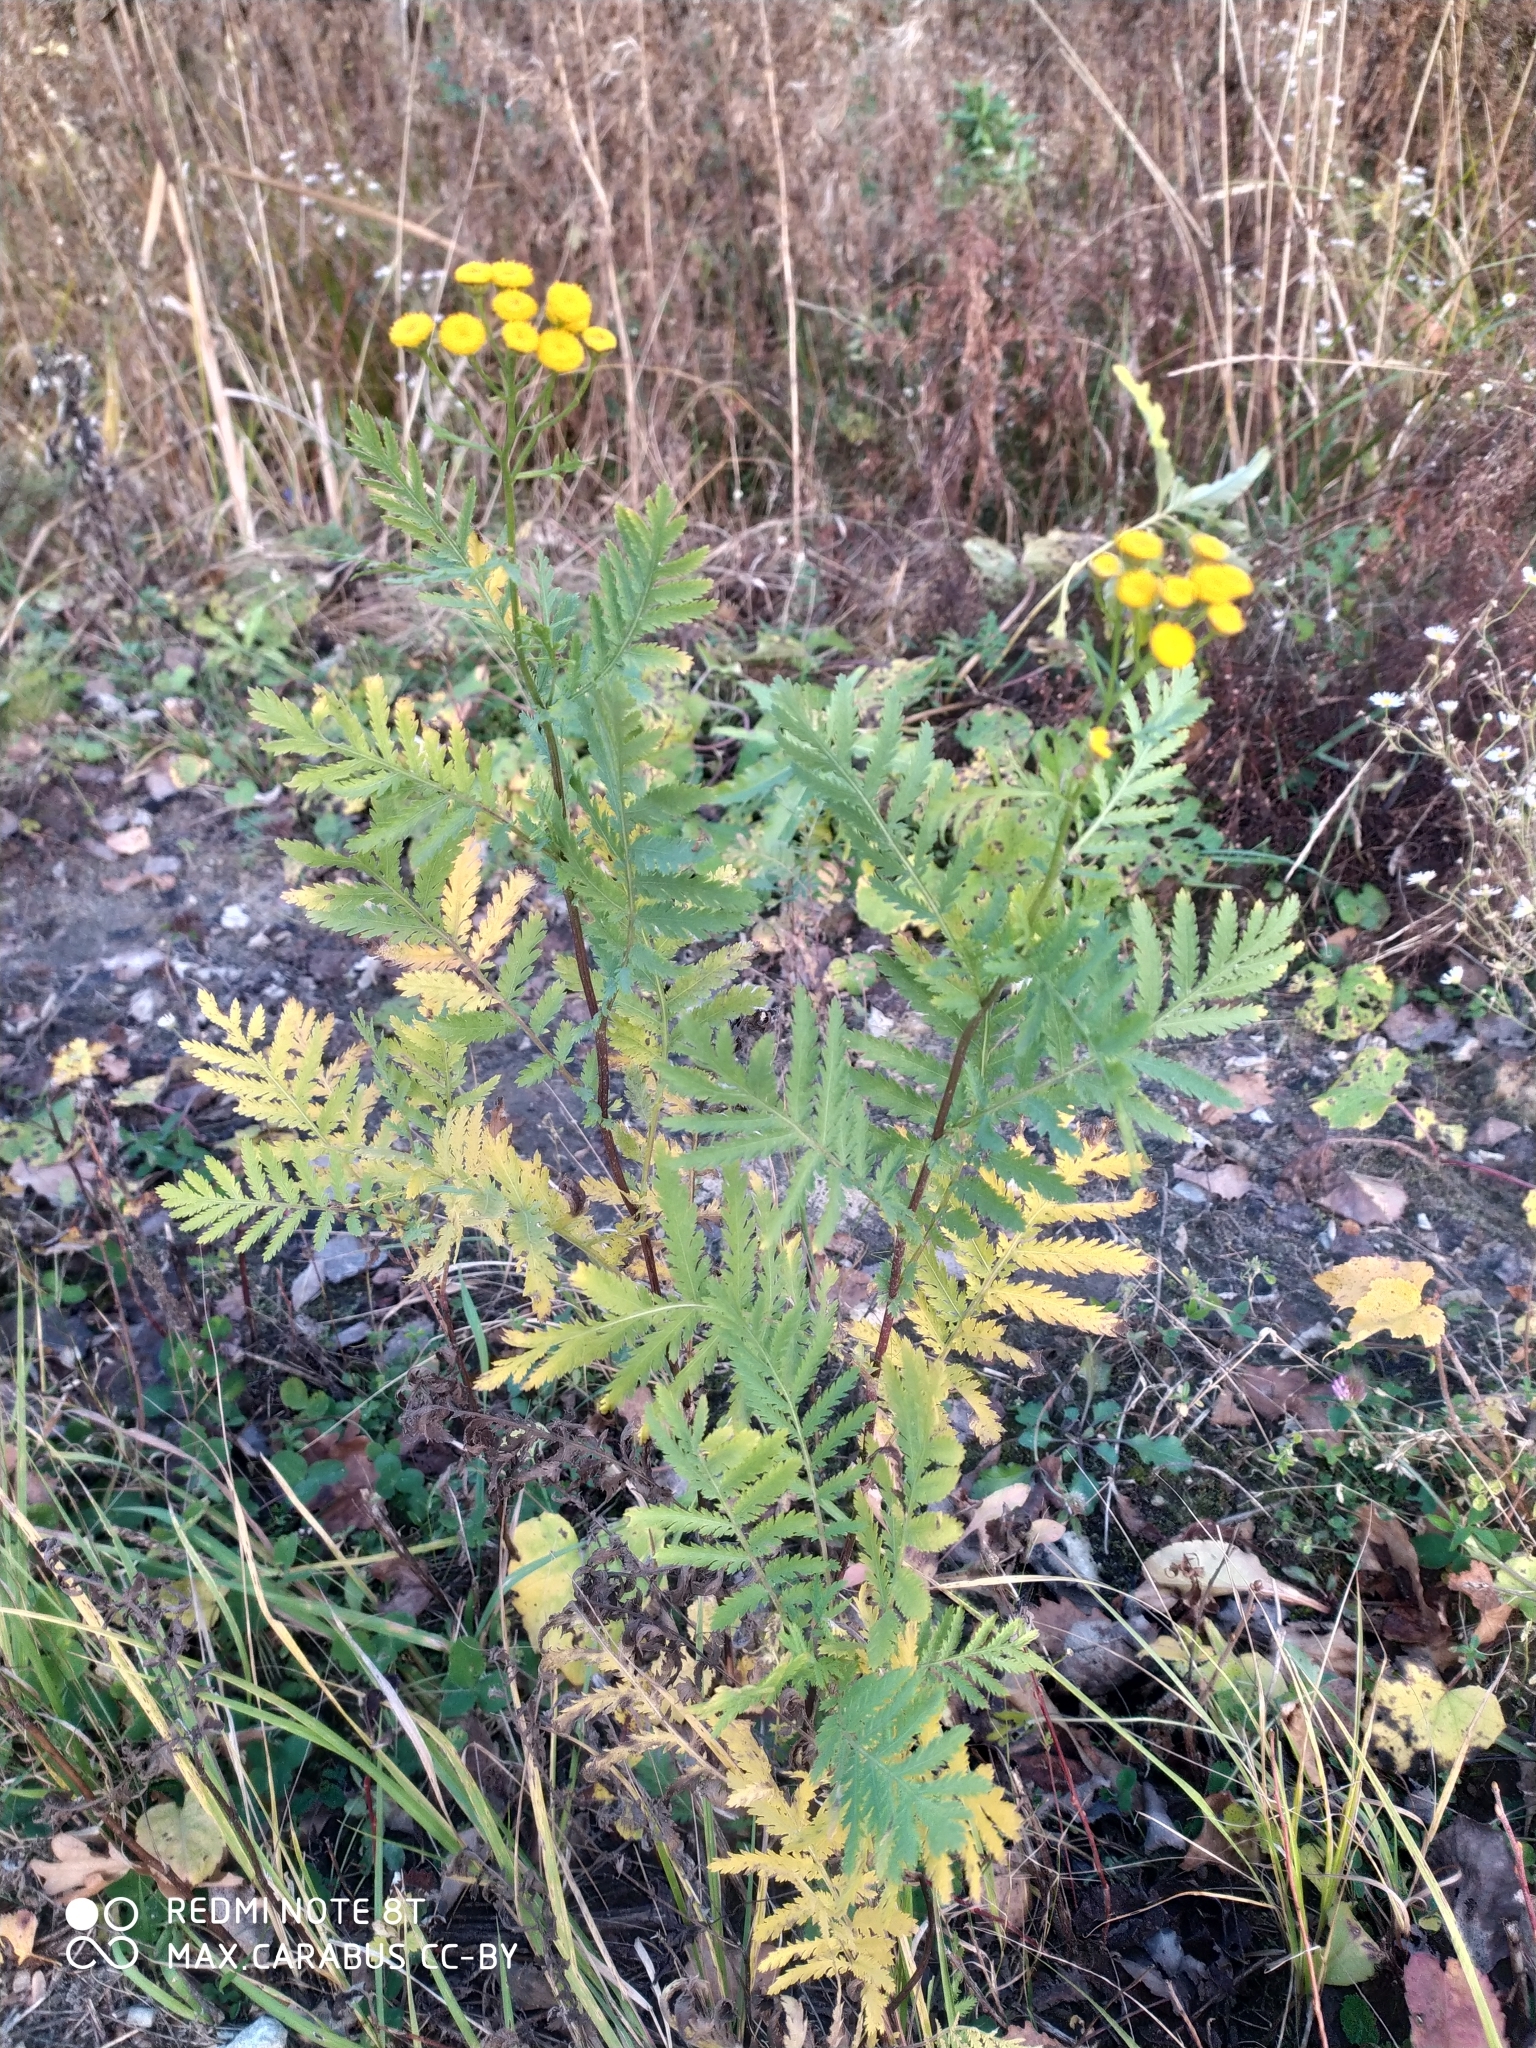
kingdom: Plantae
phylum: Tracheophyta
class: Magnoliopsida
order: Asterales
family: Asteraceae
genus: Tanacetum
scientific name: Tanacetum vulgare
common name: Common tansy
